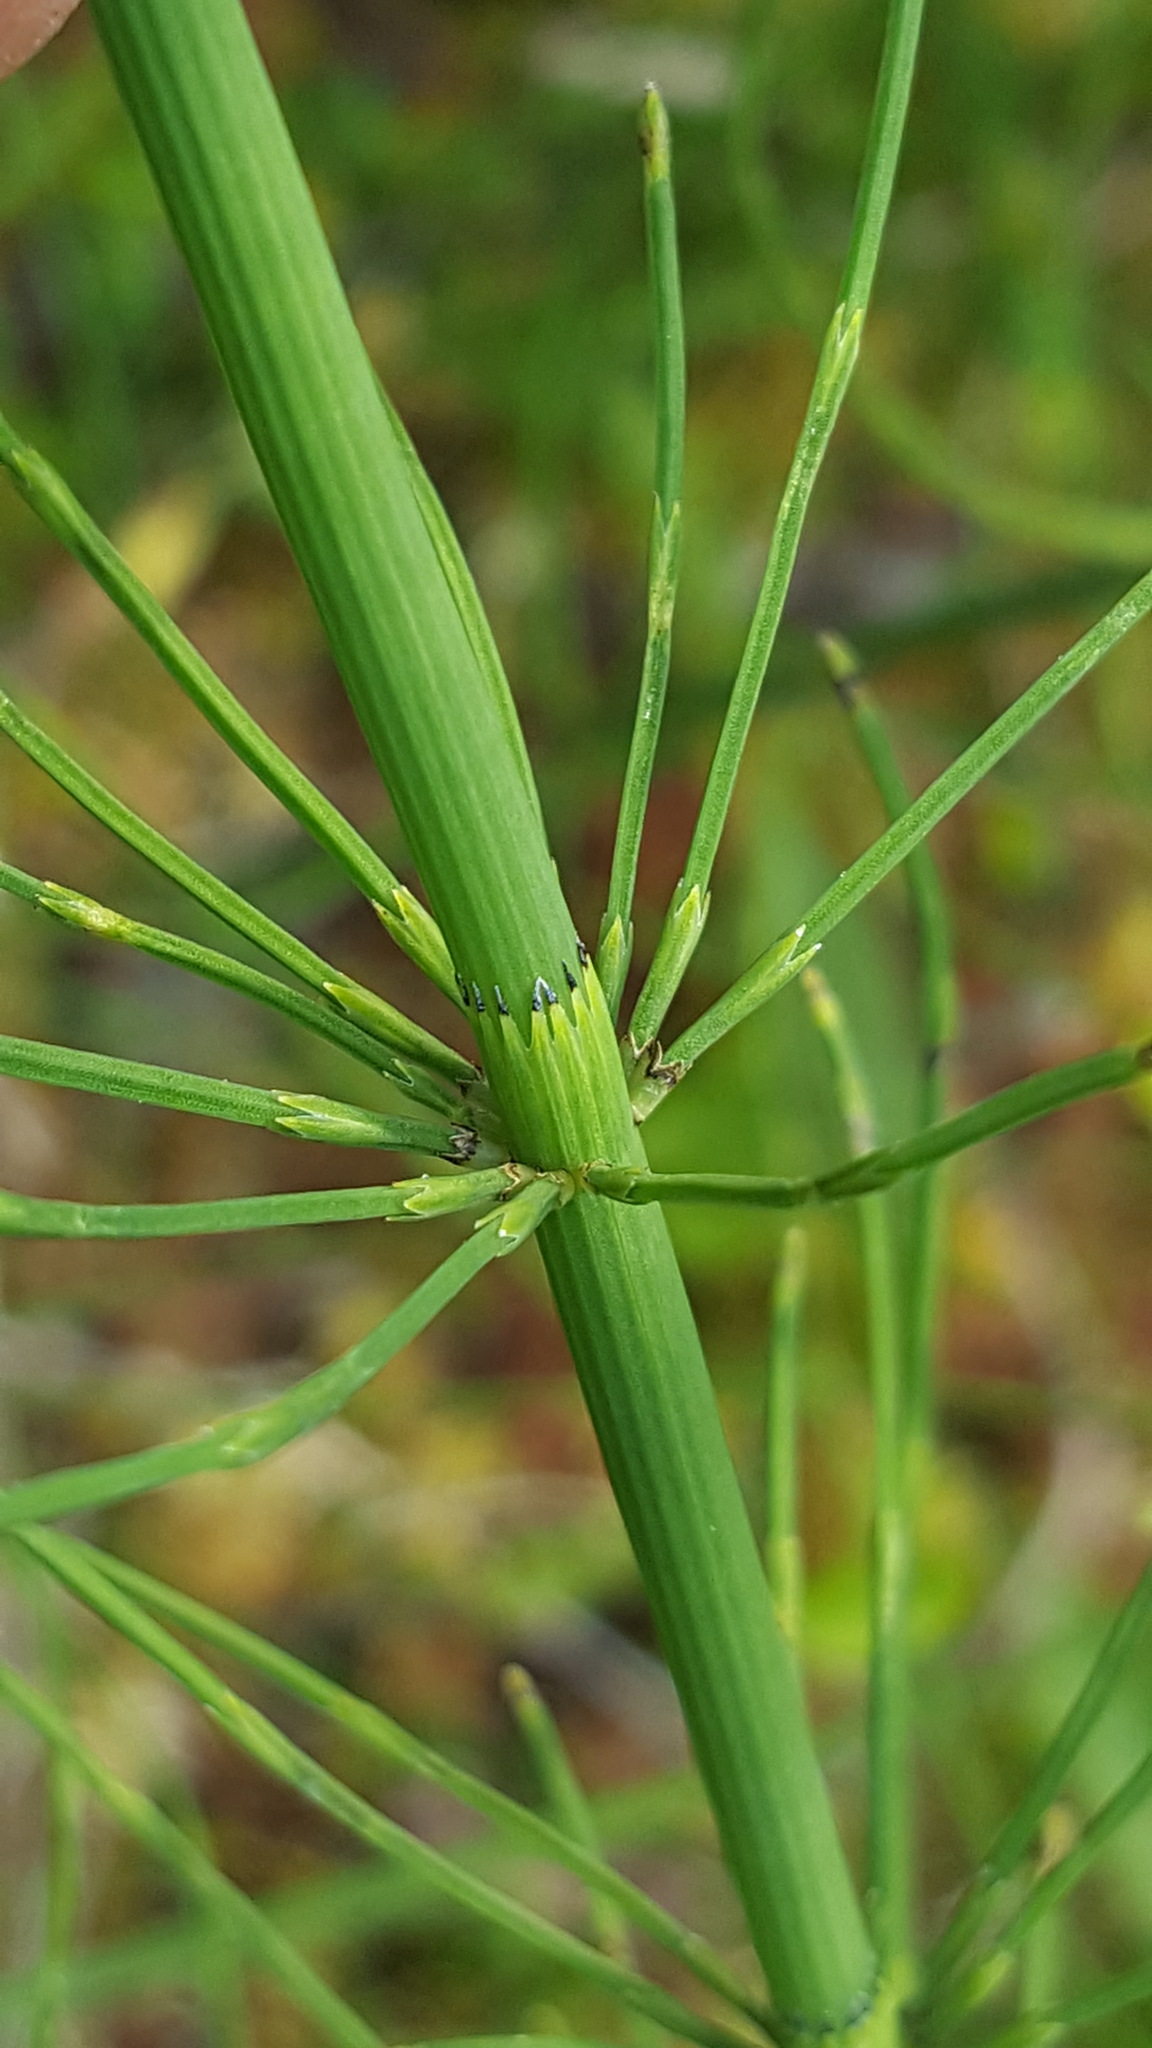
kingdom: Plantae
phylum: Tracheophyta
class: Polypodiopsida
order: Equisetales
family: Equisetaceae
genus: Equisetum
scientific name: Equisetum fluviatile
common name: Water horsetail
